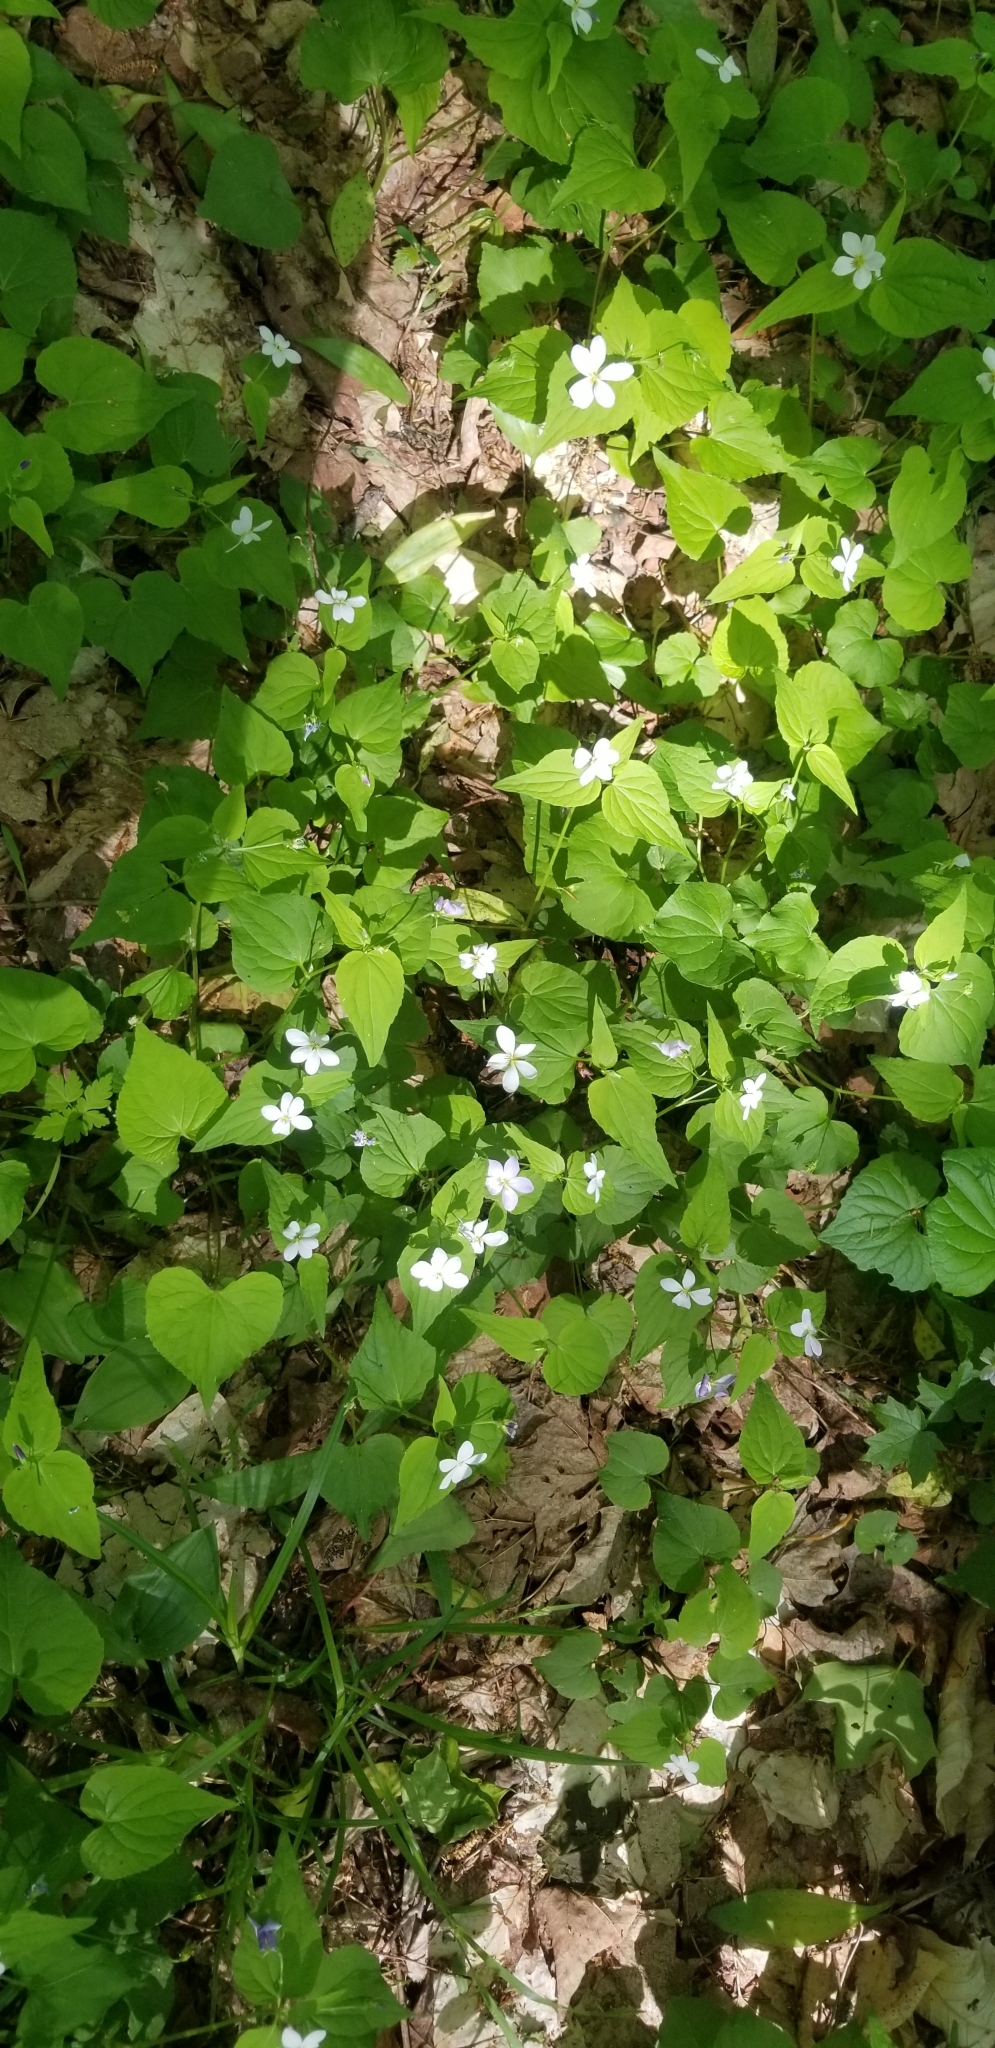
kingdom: Plantae
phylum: Tracheophyta
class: Magnoliopsida
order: Malpighiales
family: Violaceae
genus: Viola
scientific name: Viola canadensis
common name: Canada violet
